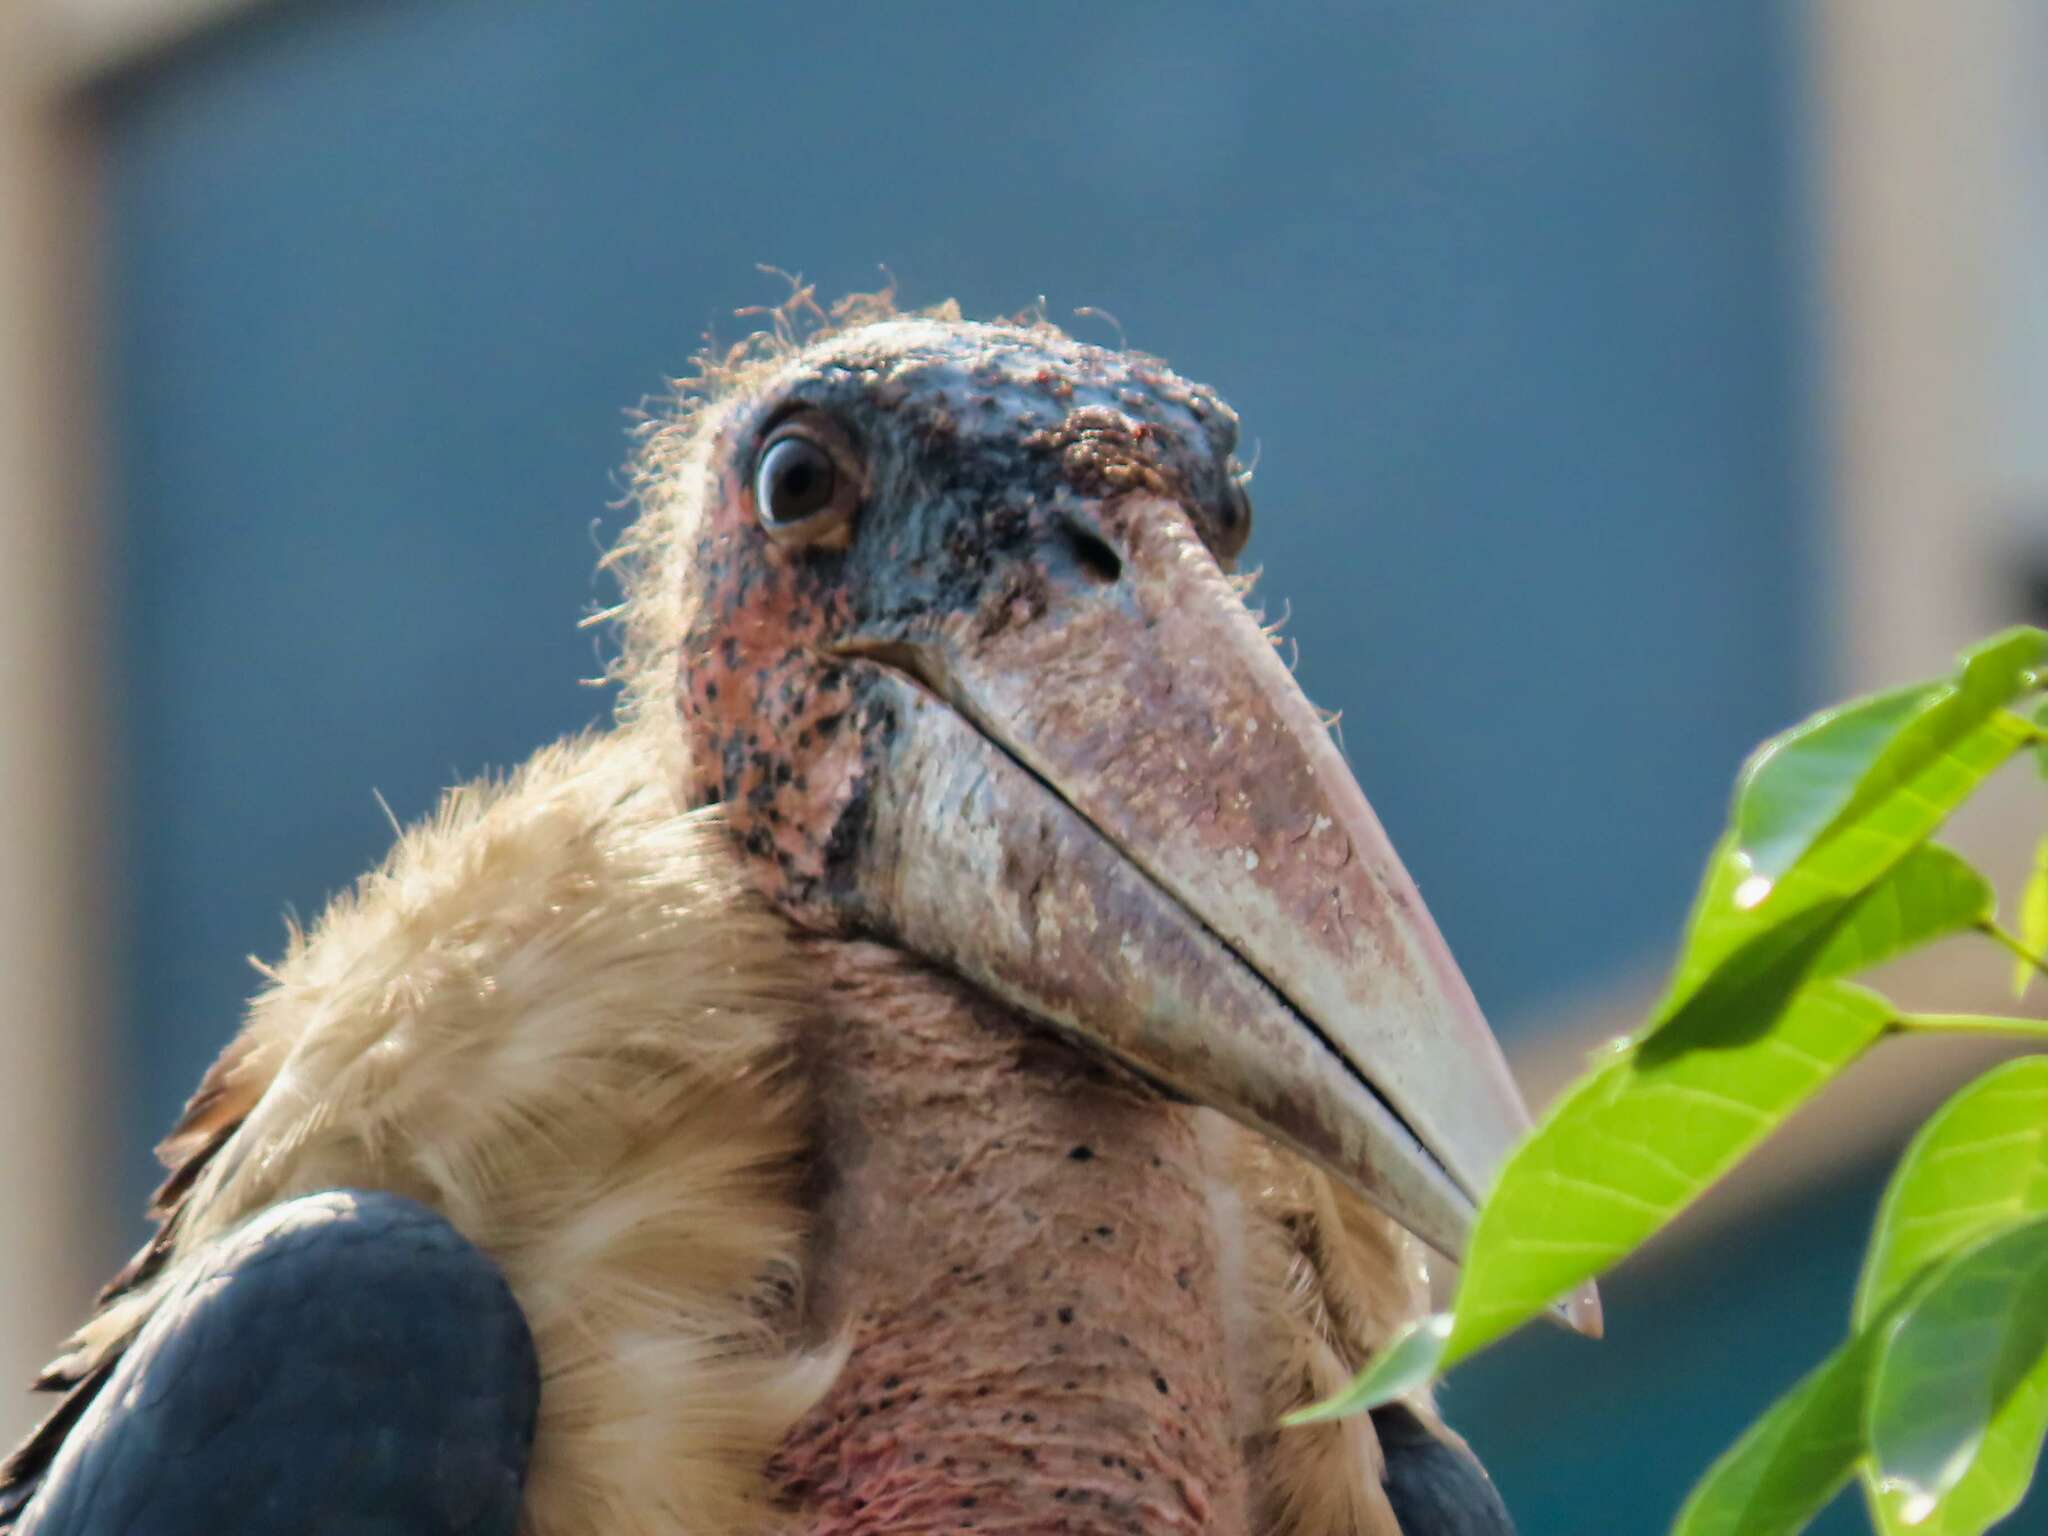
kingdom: Animalia
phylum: Chordata
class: Aves
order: Ciconiiformes
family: Ciconiidae
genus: Leptoptilos
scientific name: Leptoptilos crumenifer
